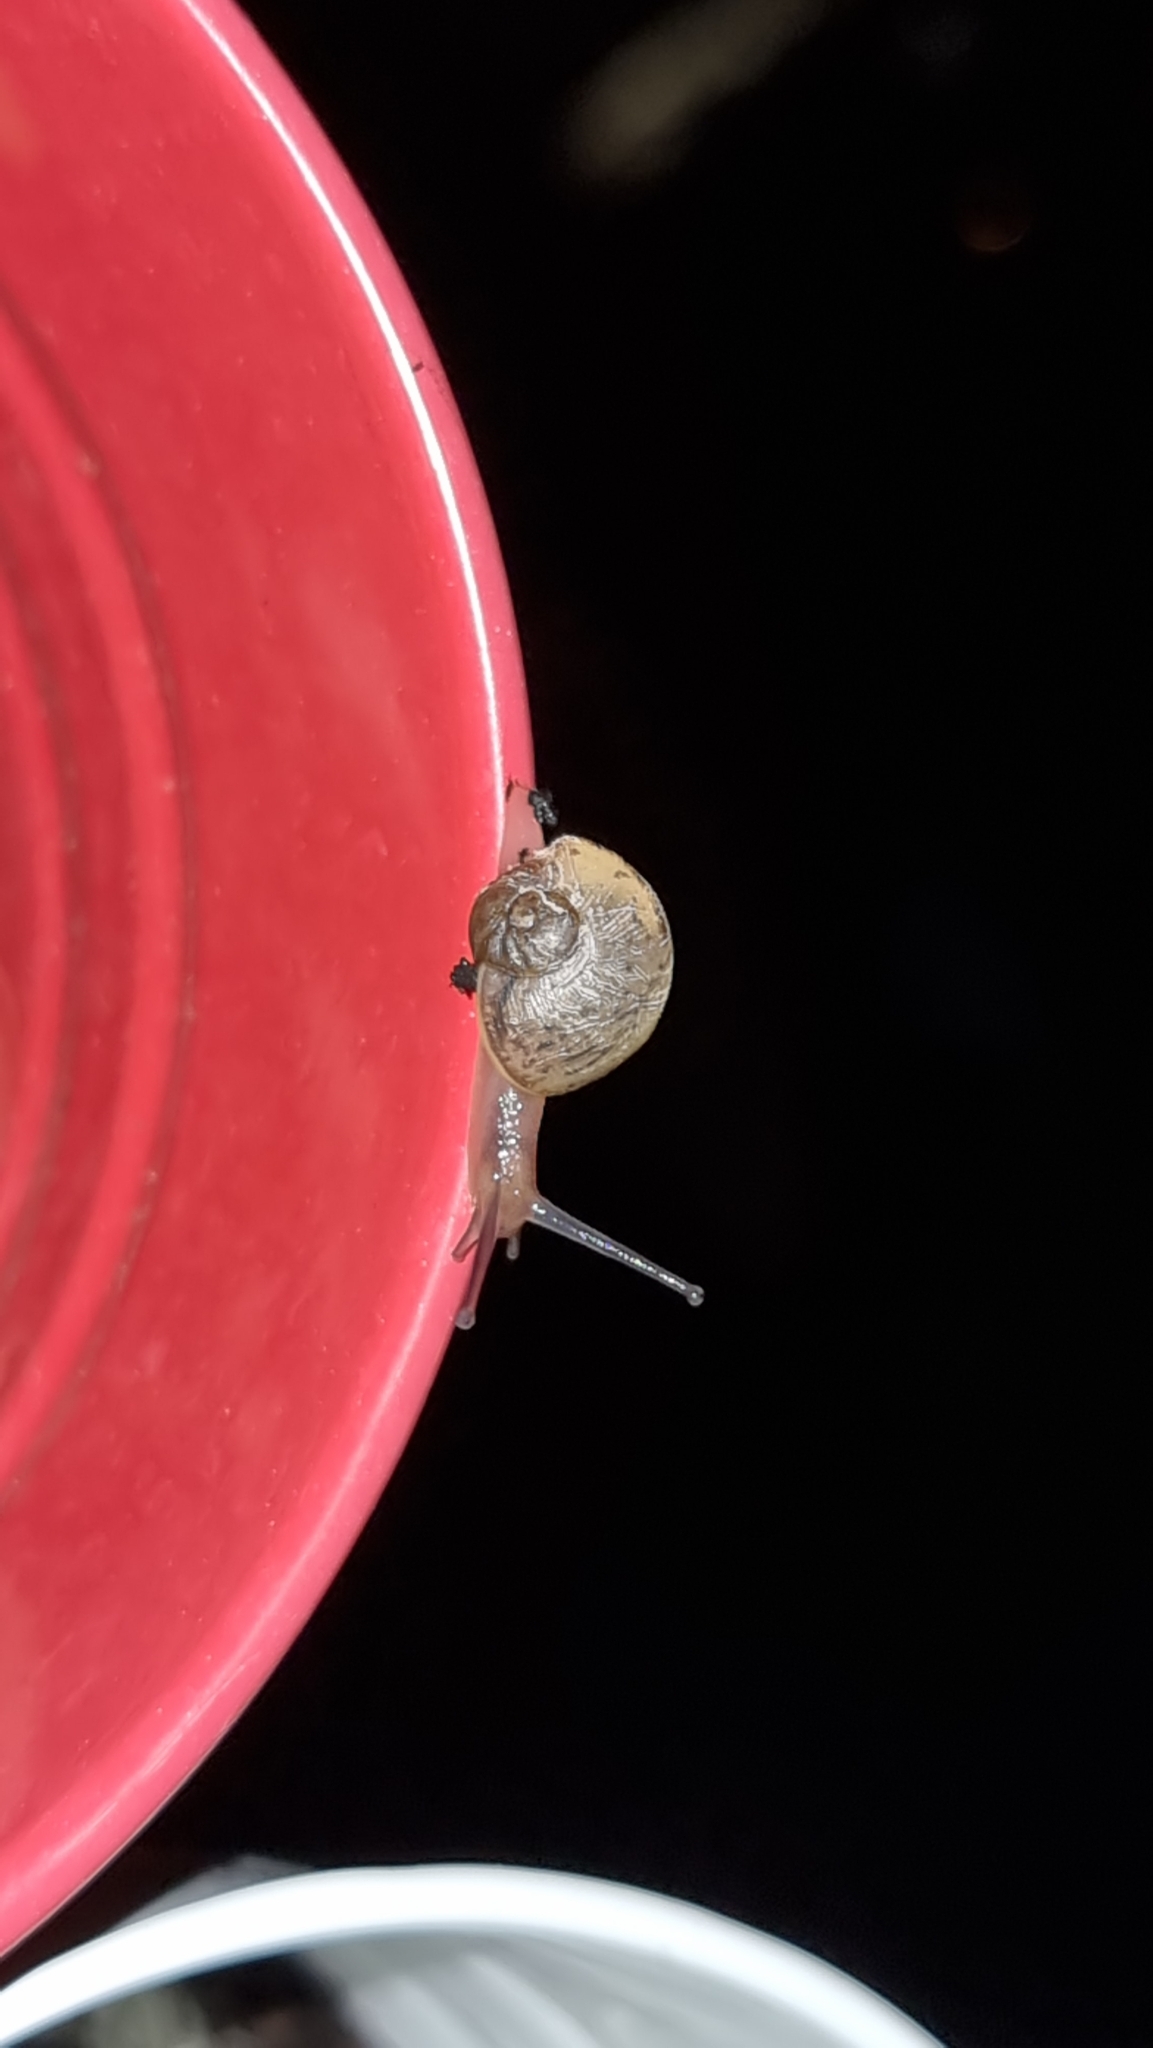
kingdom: Animalia
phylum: Mollusca
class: Gastropoda
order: Stylommatophora
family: Helicidae
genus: Cornu
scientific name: Cornu aspersum
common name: Brown garden snail
